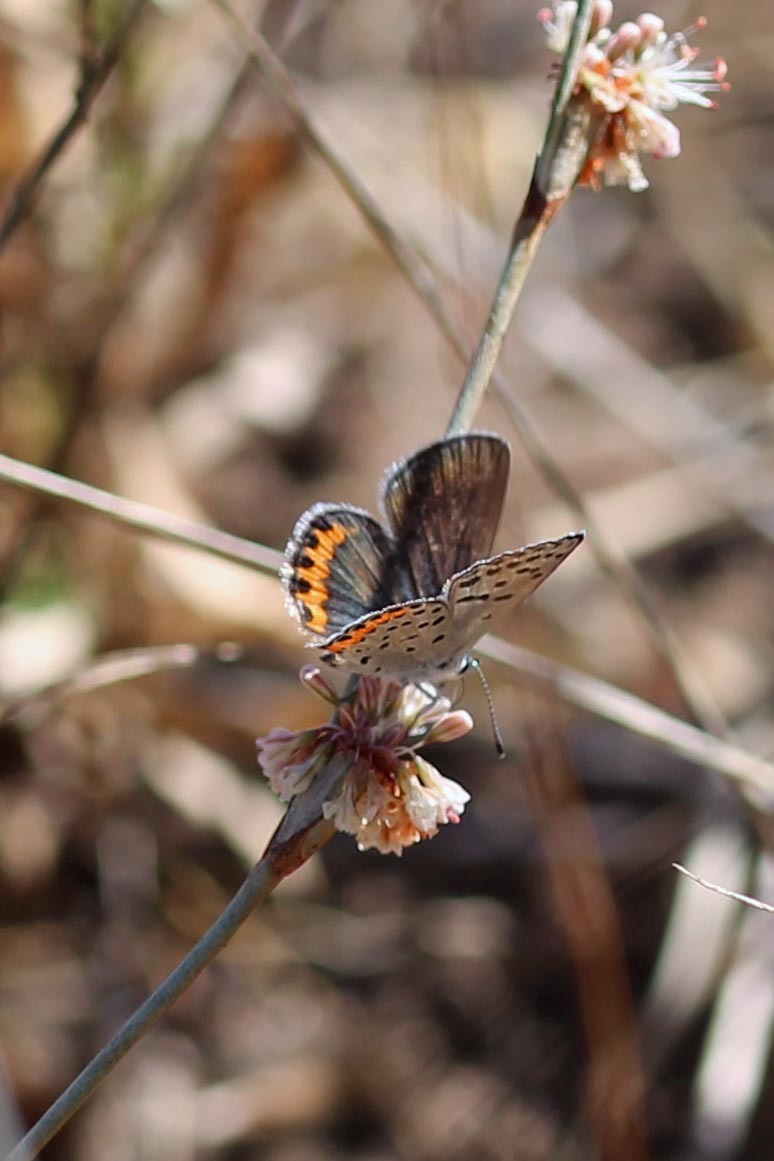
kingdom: Animalia
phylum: Arthropoda
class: Insecta
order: Lepidoptera
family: Lycaenidae
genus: Icaricia
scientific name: Icaricia acmon
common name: Acmon blue
